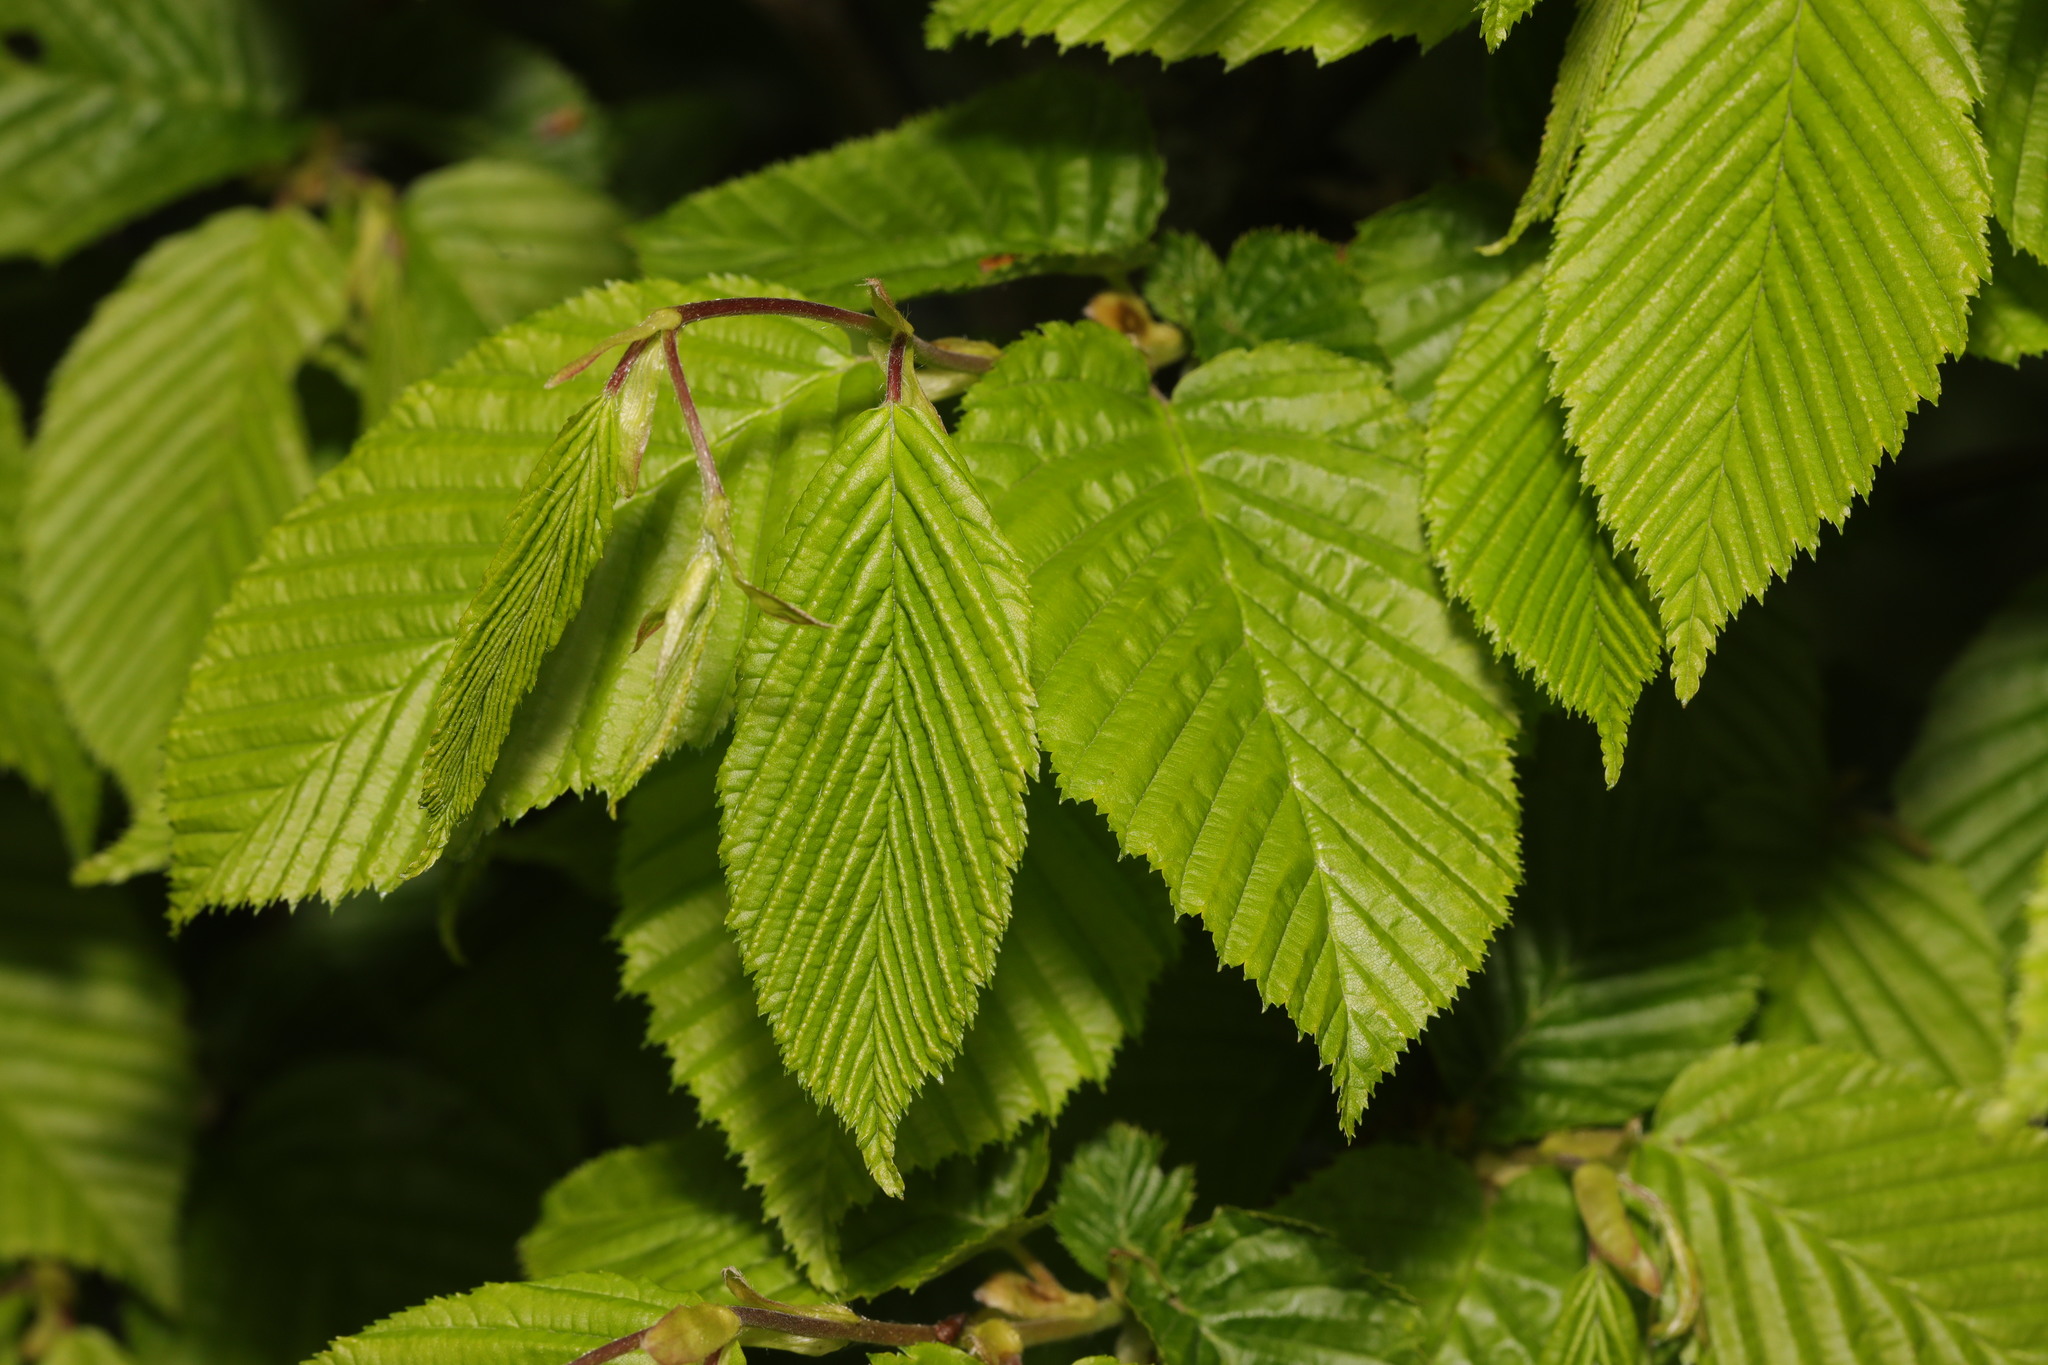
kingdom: Plantae
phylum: Tracheophyta
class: Magnoliopsida
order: Fagales
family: Betulaceae
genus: Carpinus
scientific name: Carpinus betulus
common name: Hornbeam
